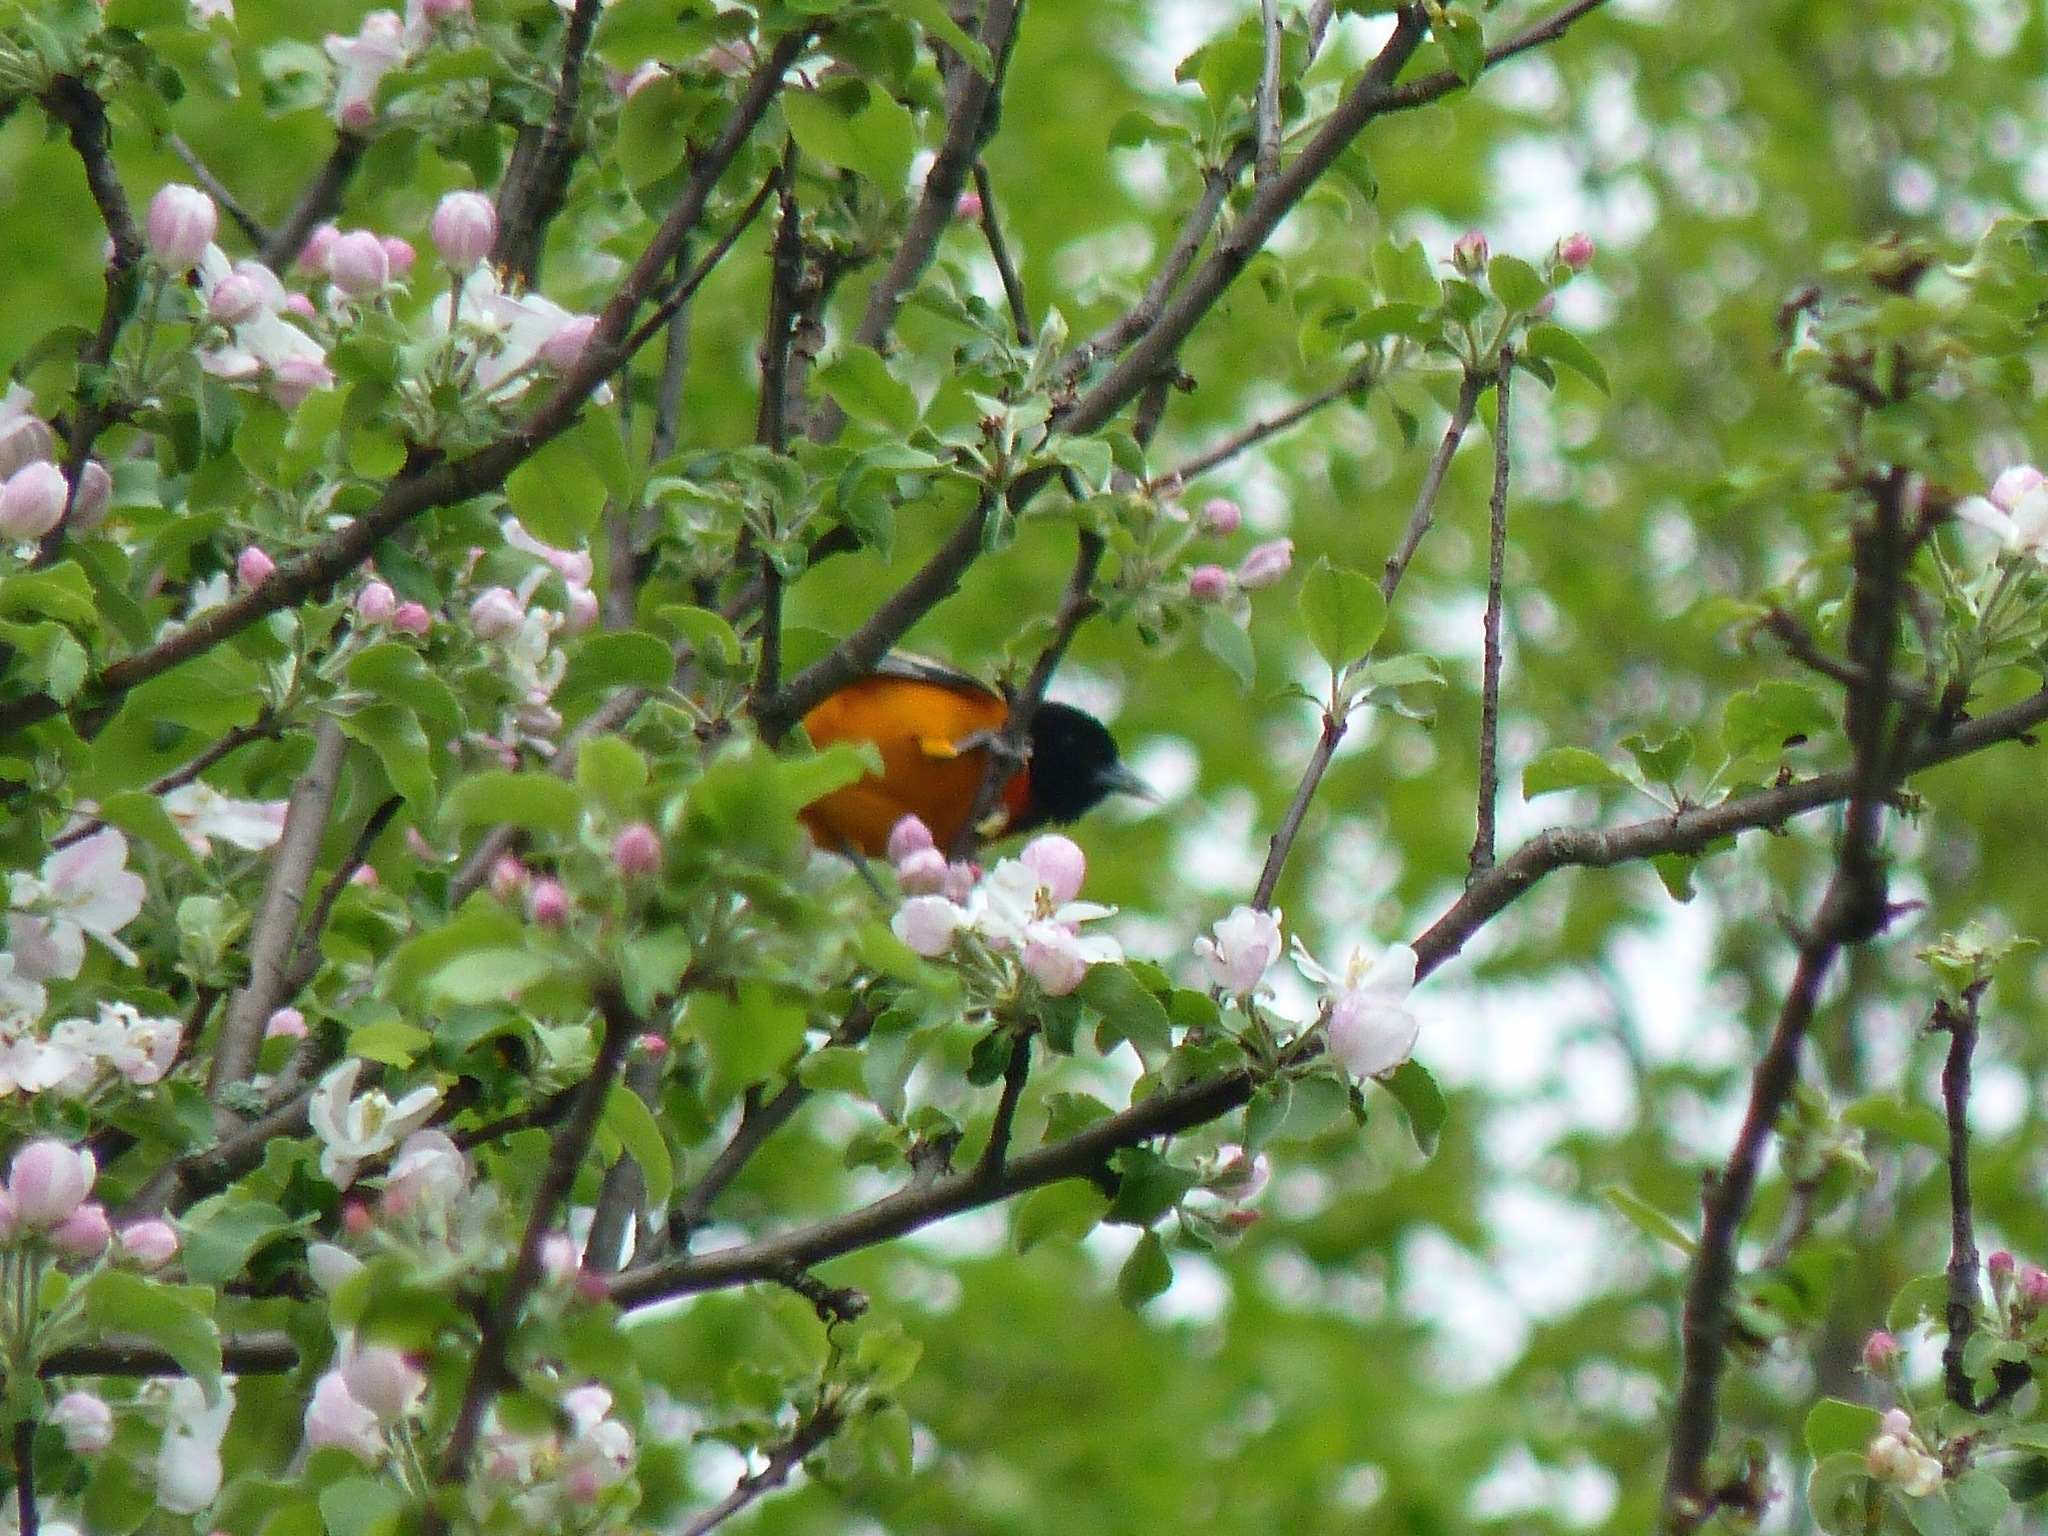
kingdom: Animalia
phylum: Chordata
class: Aves
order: Passeriformes
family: Icteridae
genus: Icterus
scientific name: Icterus galbula
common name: Baltimore oriole
